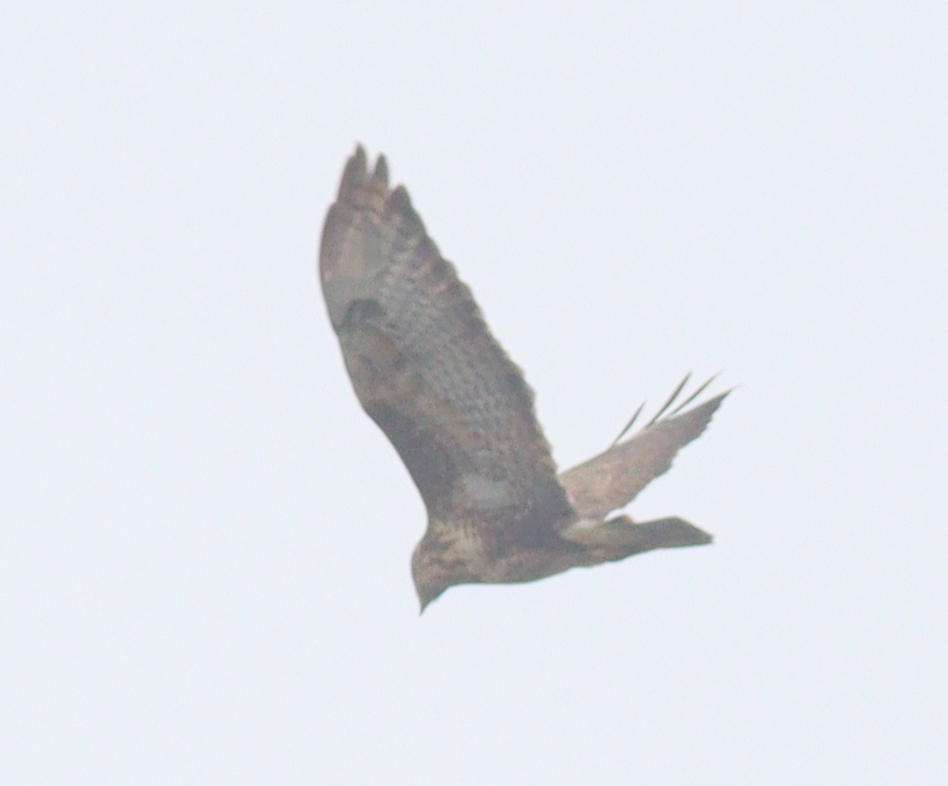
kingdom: Animalia
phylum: Chordata
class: Aves
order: Accipitriformes
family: Accipitridae
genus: Buteo
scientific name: Buteo buteo
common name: Common buzzard
